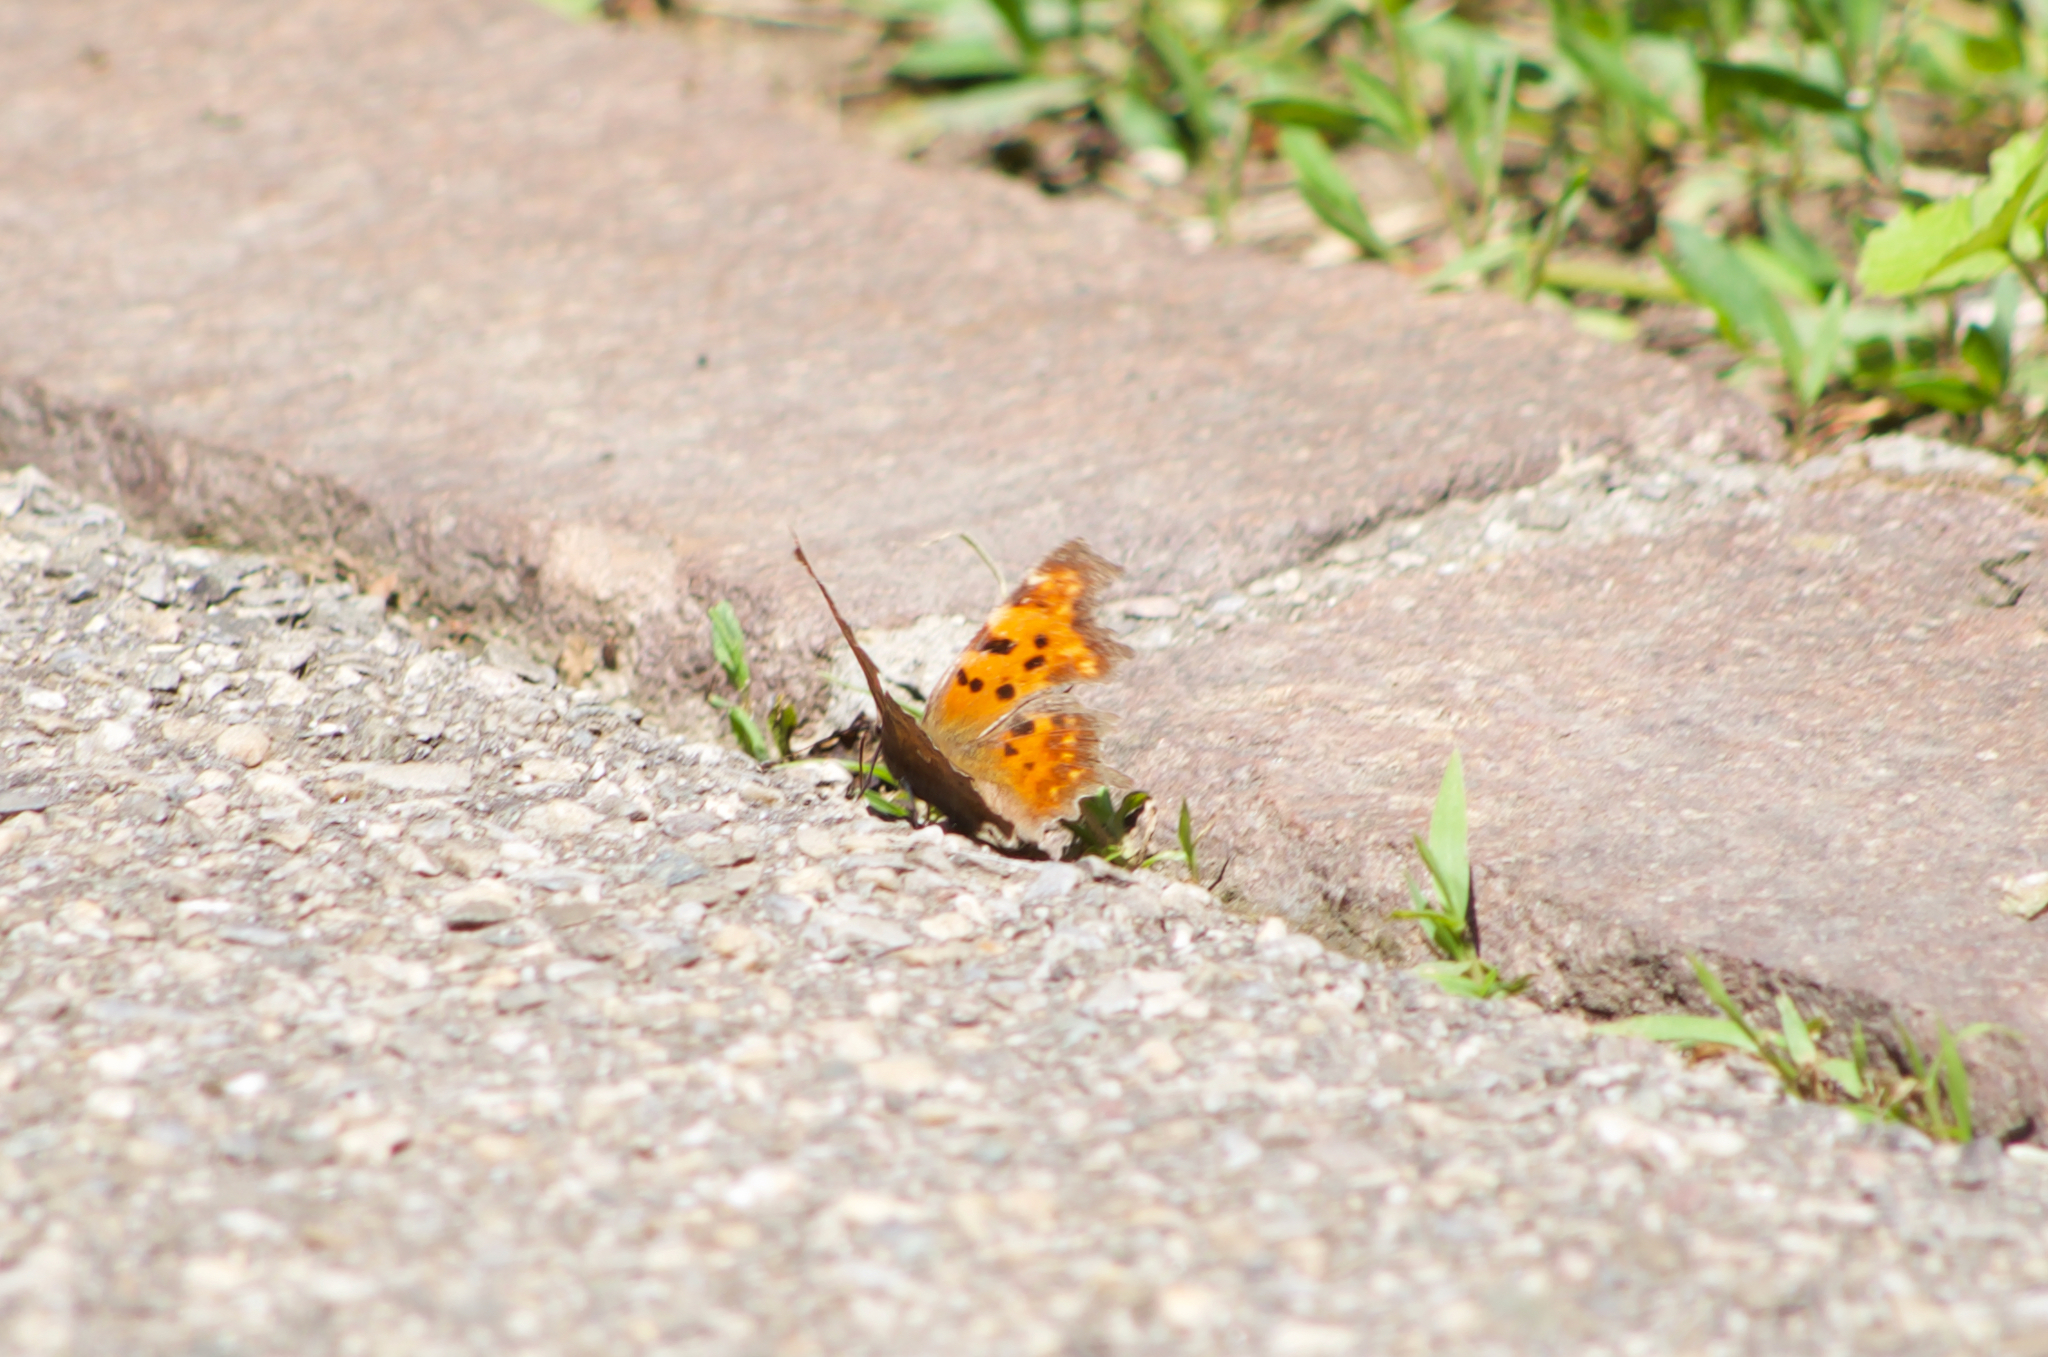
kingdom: Animalia
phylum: Arthropoda
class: Insecta
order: Lepidoptera
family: Nymphalidae
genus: Polygonia
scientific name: Polygonia c-album
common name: Comma
